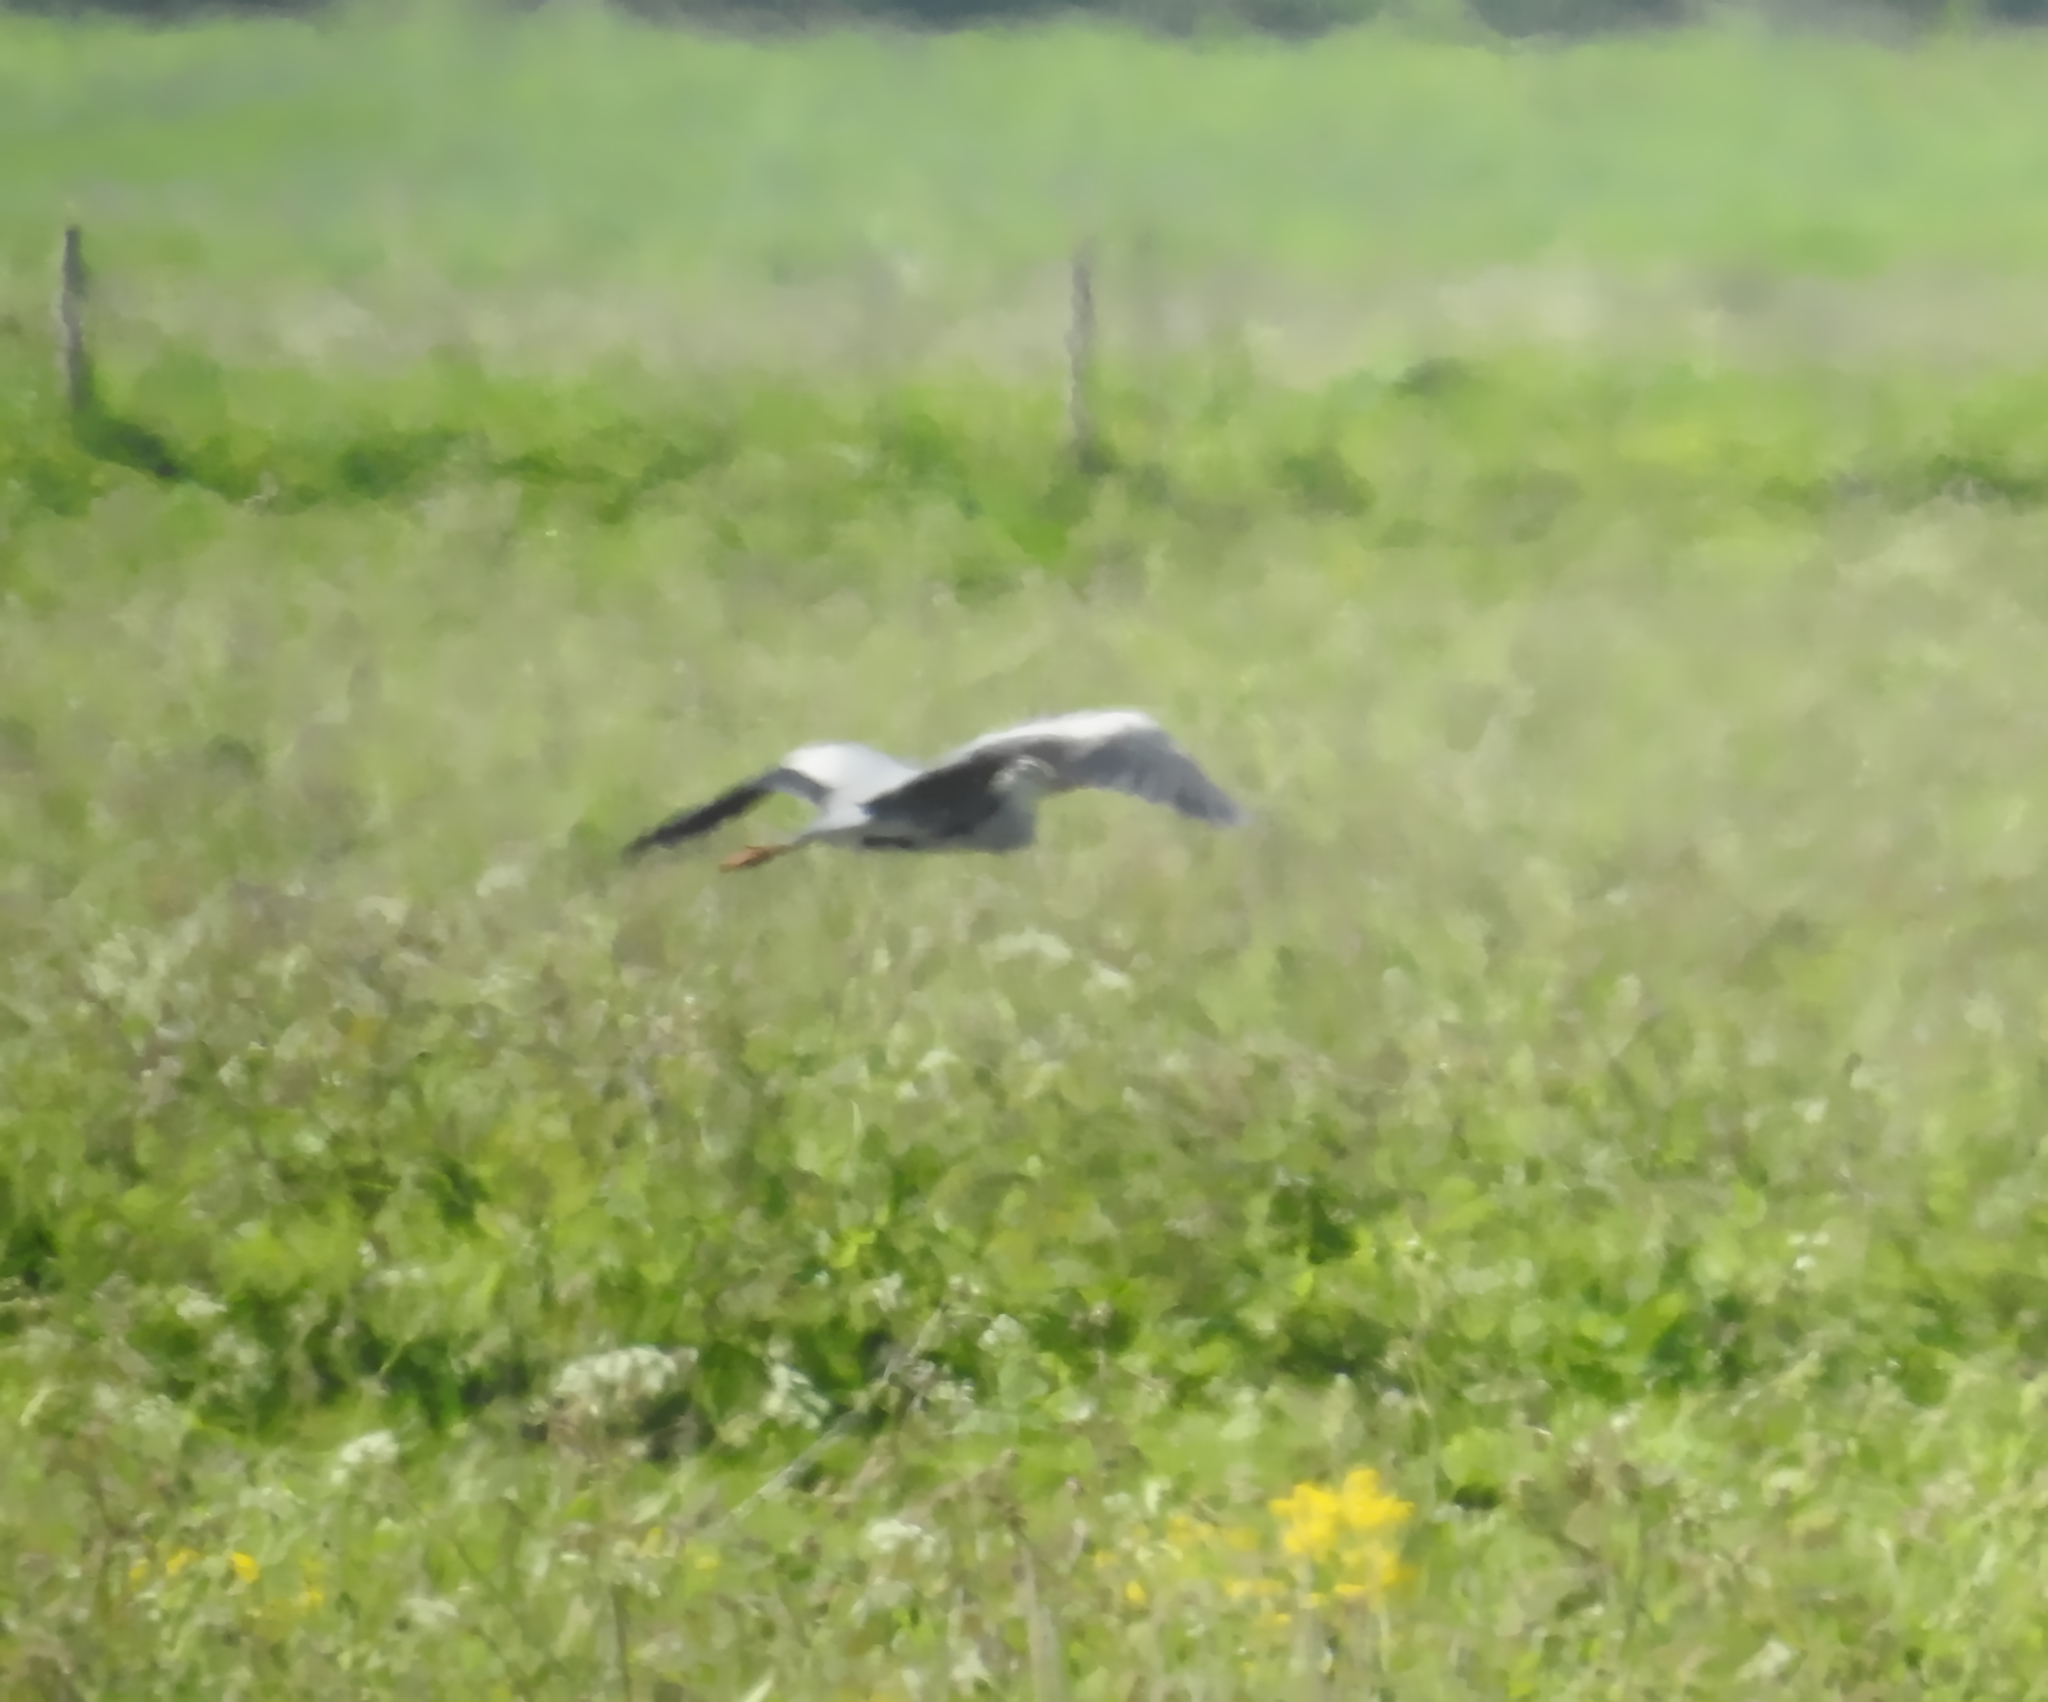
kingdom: Animalia
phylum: Chordata
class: Aves
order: Pelecaniformes
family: Ardeidae
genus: Ardea
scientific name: Ardea cinerea
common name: Grey heron
